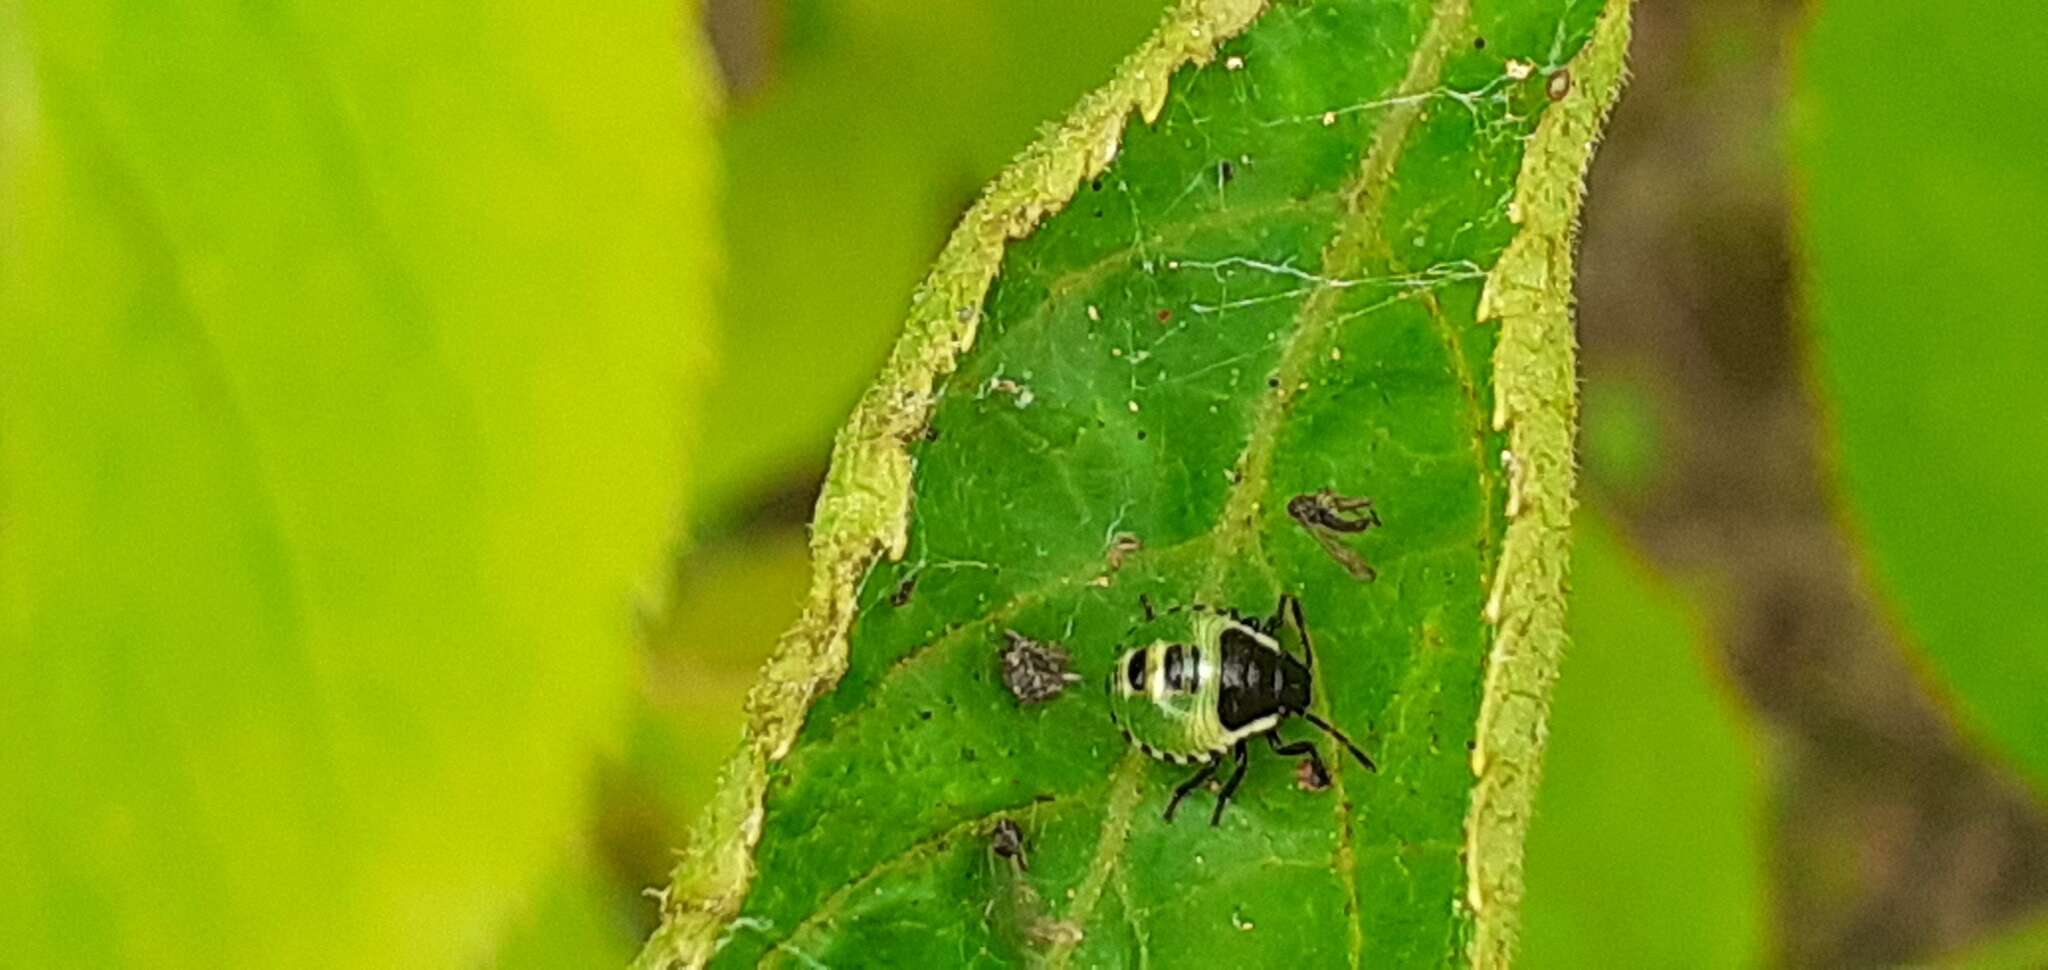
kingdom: Animalia
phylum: Arthropoda
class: Insecta
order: Hemiptera
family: Pentatomidae
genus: Palomena
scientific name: Palomena prasina
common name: Green shieldbug
